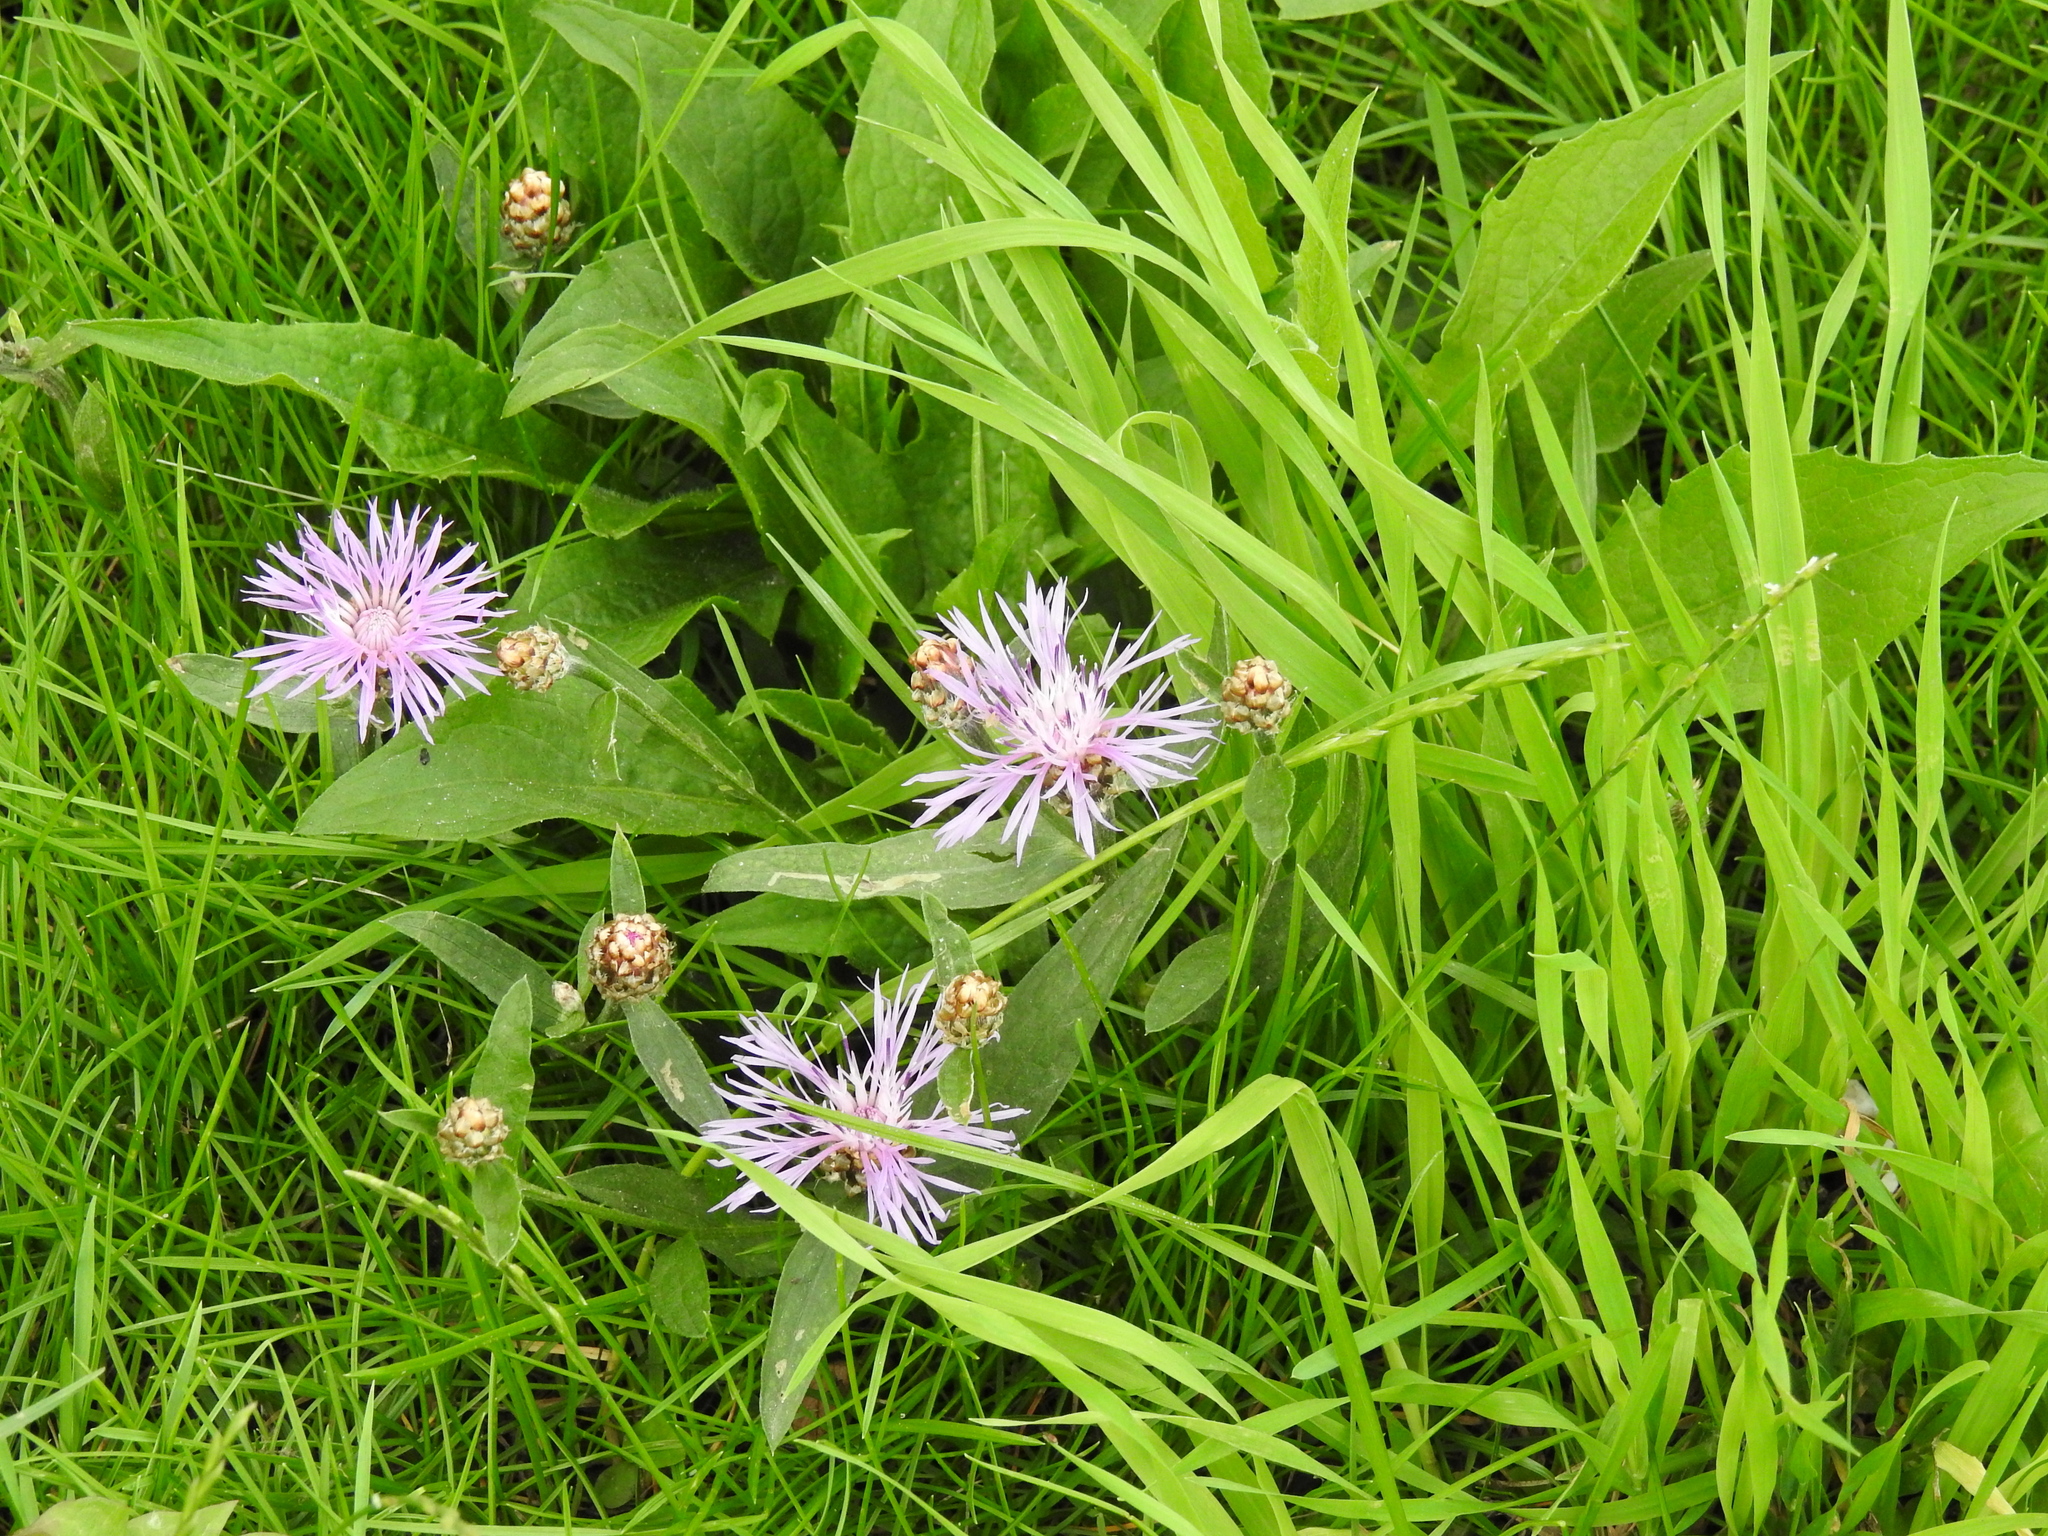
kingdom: Plantae
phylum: Tracheophyta
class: Magnoliopsida
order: Asterales
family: Asteraceae
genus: Centaurea
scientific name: Centaurea jacea
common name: Brown knapweed
